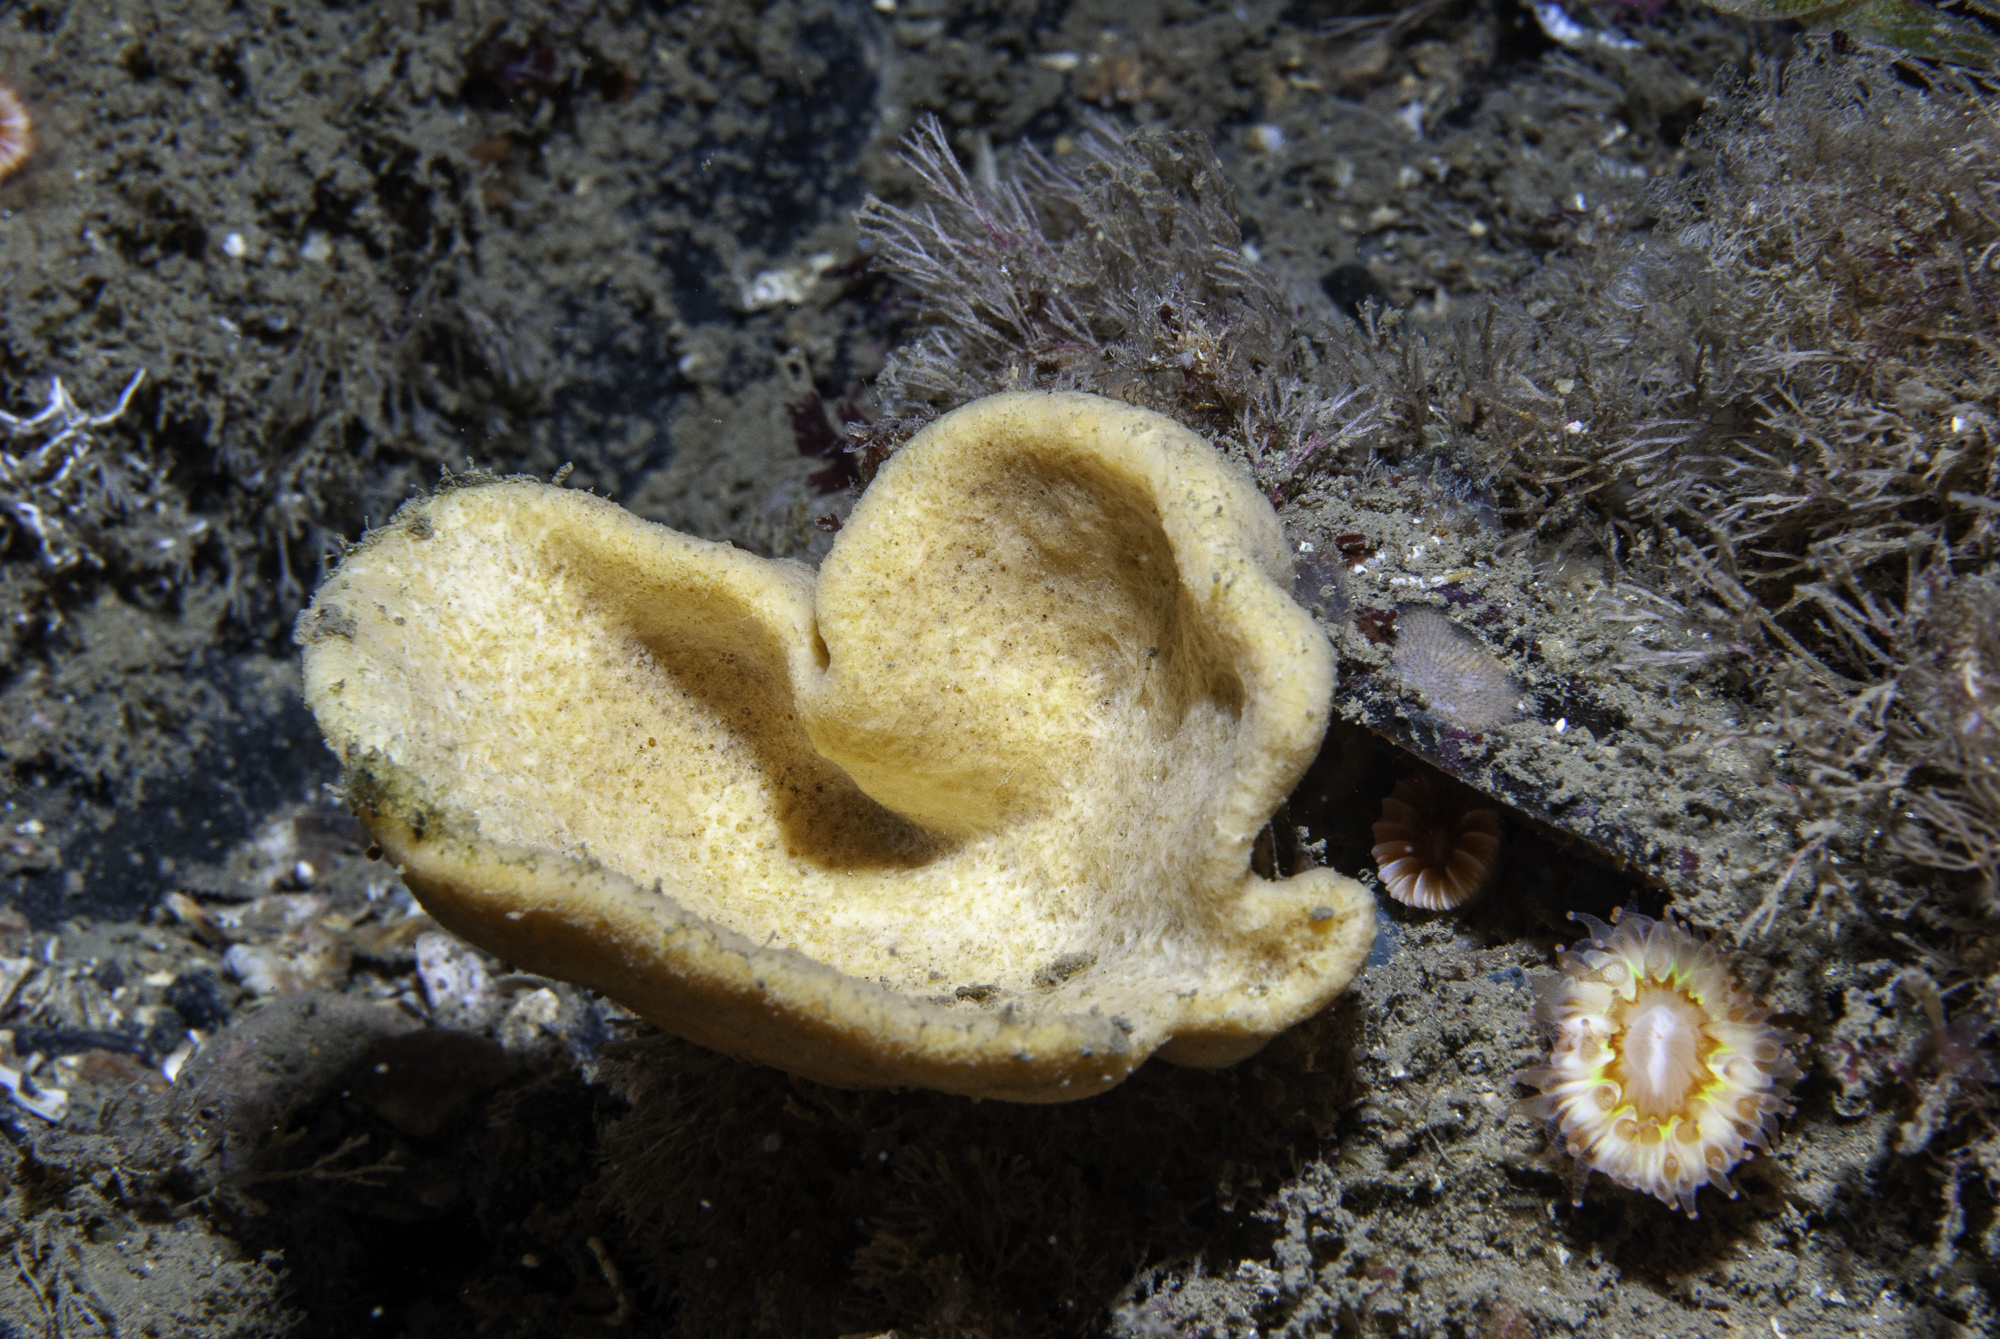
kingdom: Animalia
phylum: Porifera
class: Demospongiae
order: Axinellida
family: Axinellidae
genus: Axinella
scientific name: Axinella infundibuliformis
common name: North atlantic cup sponge
